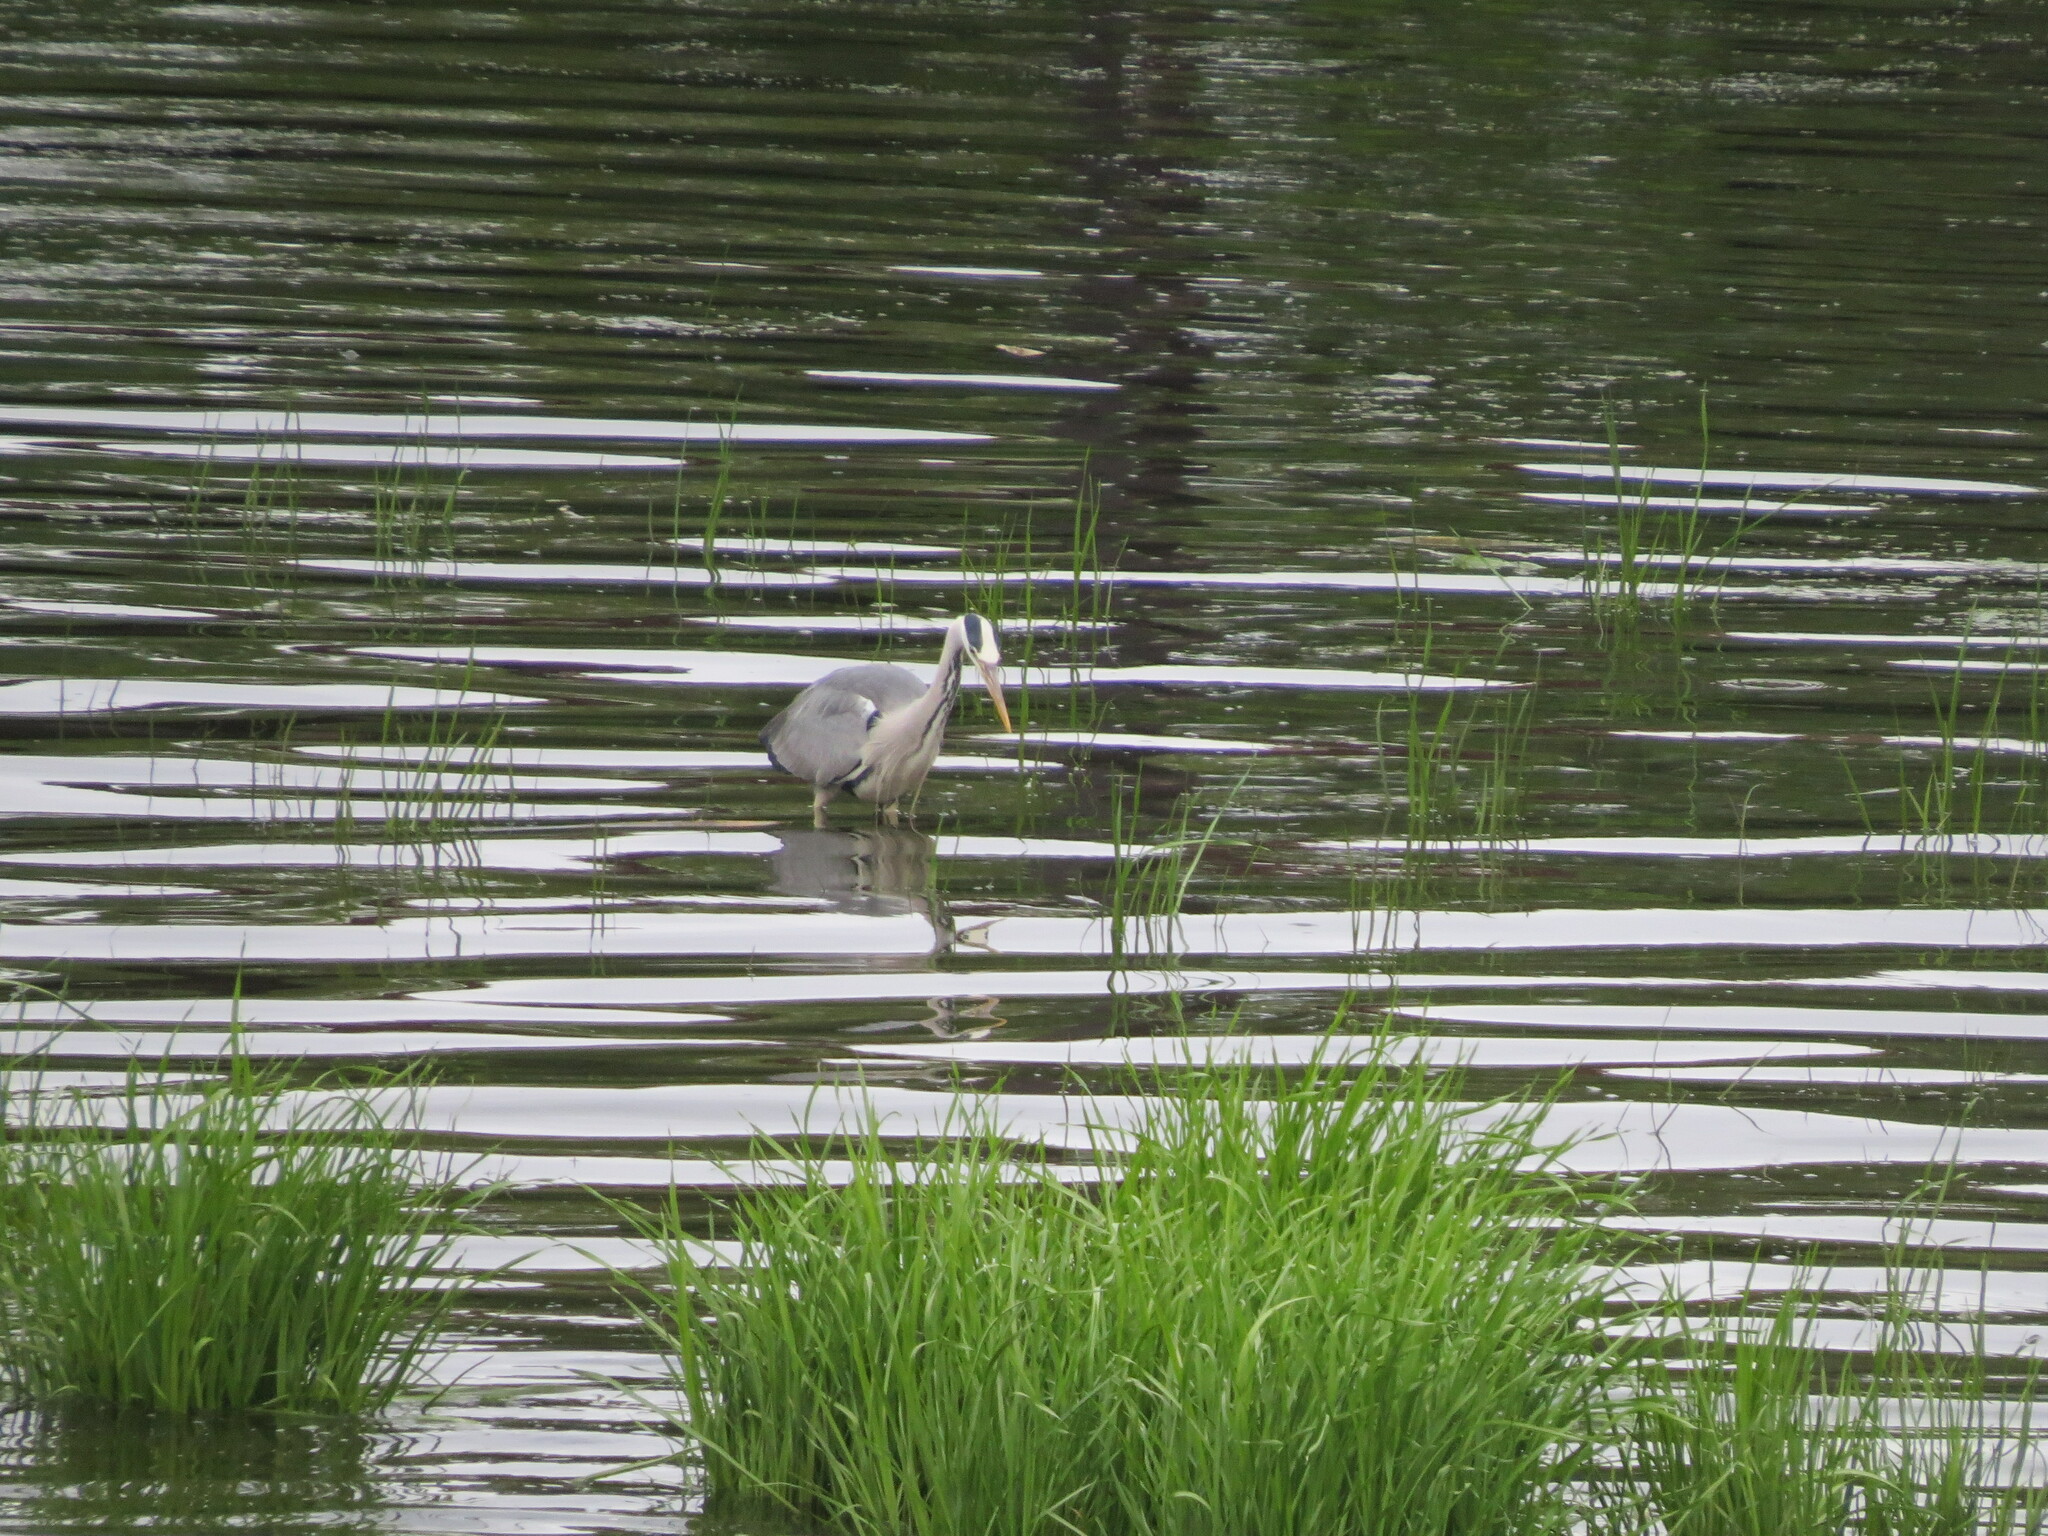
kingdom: Animalia
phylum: Chordata
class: Aves
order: Pelecaniformes
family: Ardeidae
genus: Ardea
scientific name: Ardea cinerea
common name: Grey heron
